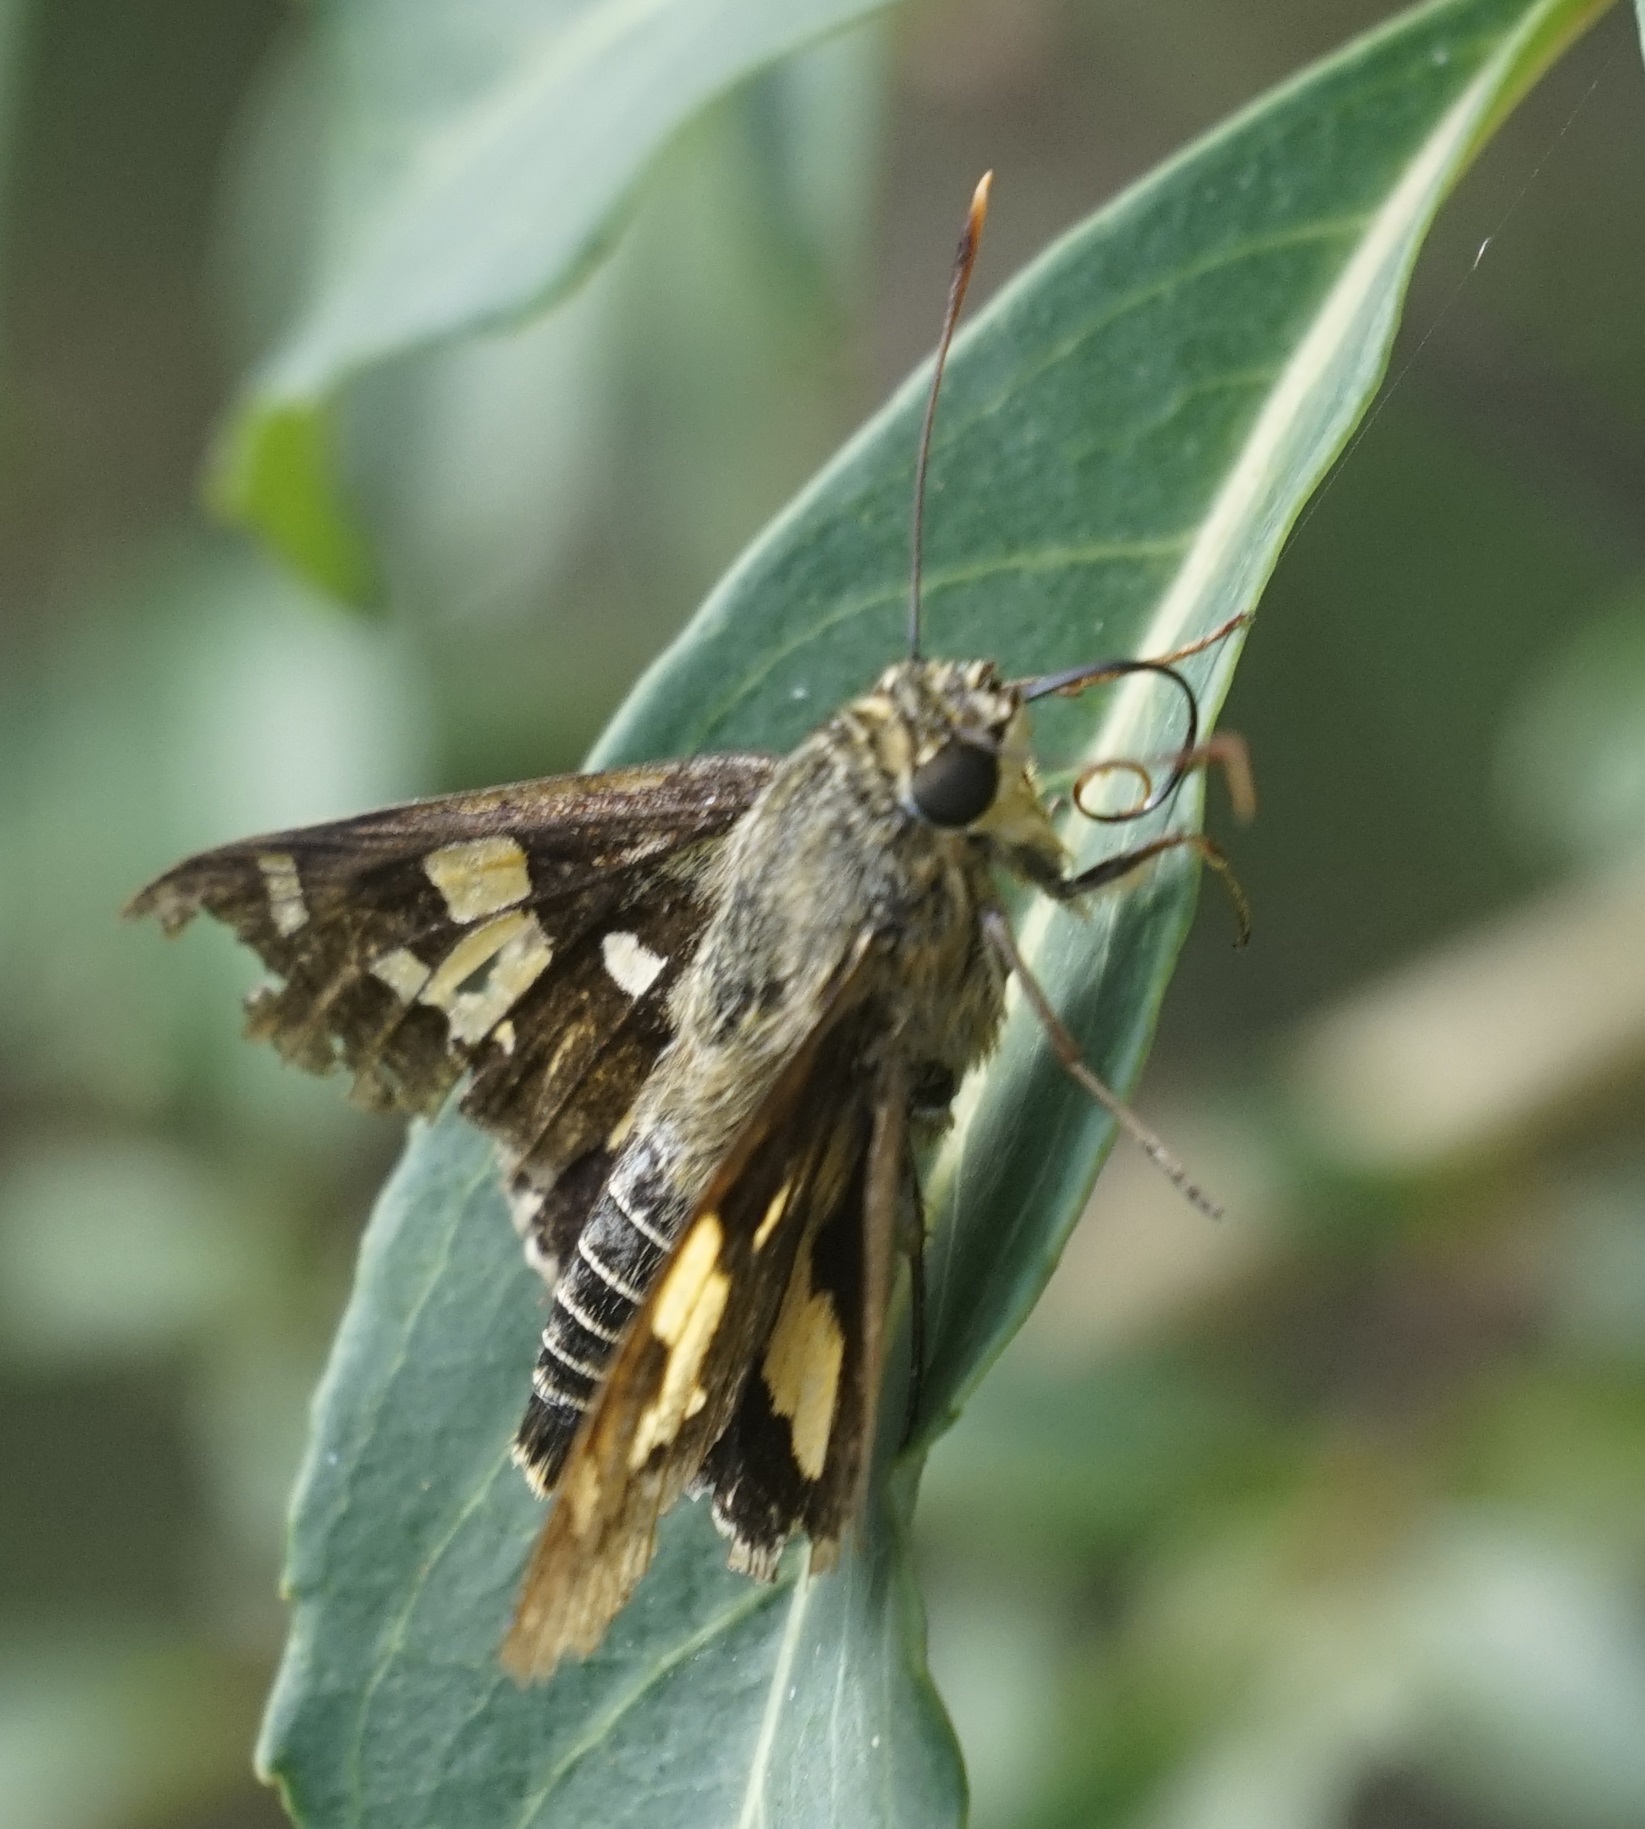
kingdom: Animalia
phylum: Arthropoda
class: Insecta
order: Lepidoptera
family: Hesperiidae
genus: Trapezites
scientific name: Trapezites symmomus
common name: Splendid ochre
